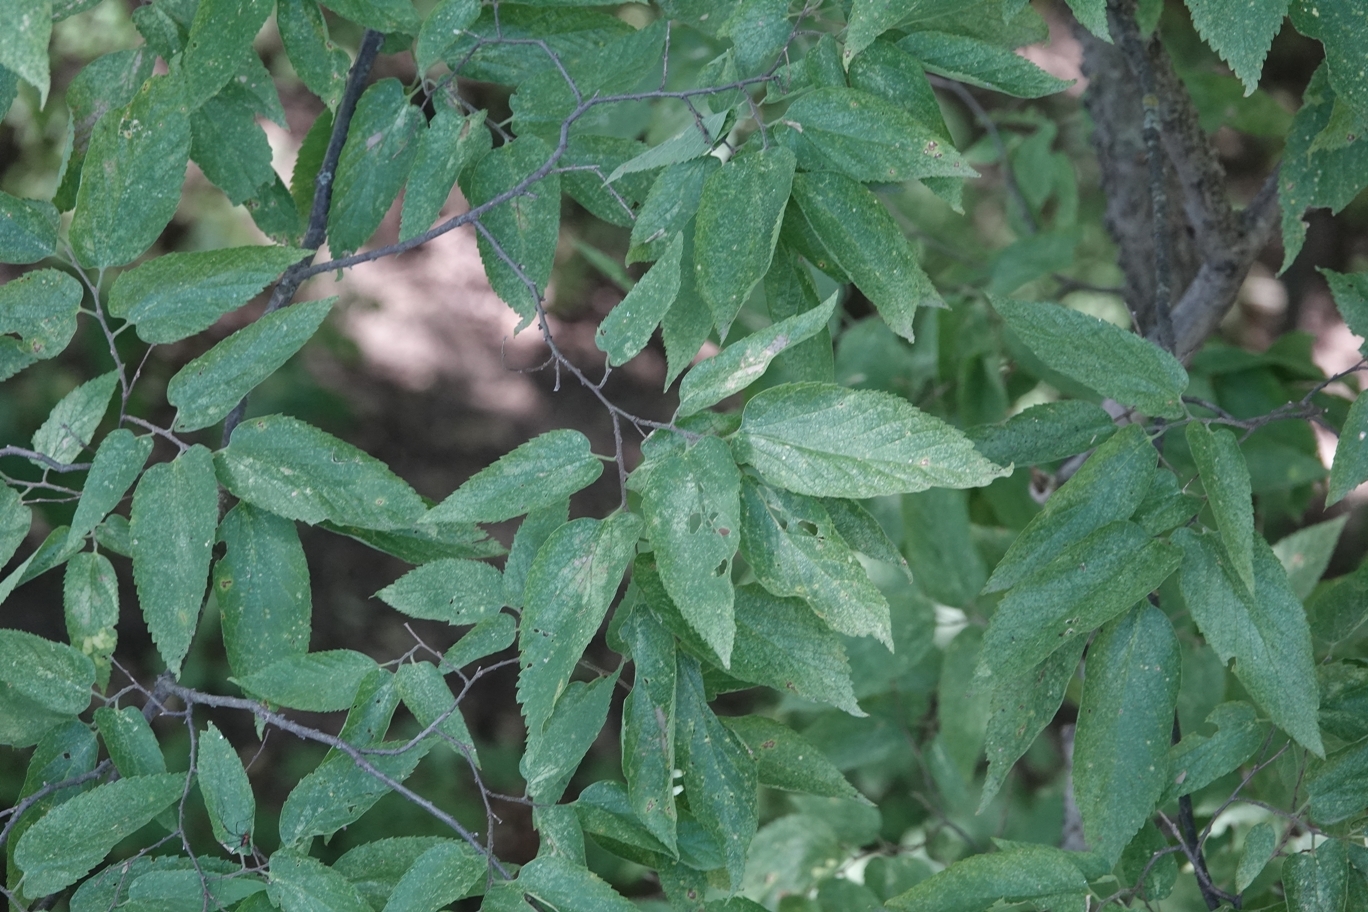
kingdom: Plantae
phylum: Tracheophyta
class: Magnoliopsida
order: Rosales
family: Cannabaceae
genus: Celtis
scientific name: Celtis occidentalis
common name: Common hackberry
